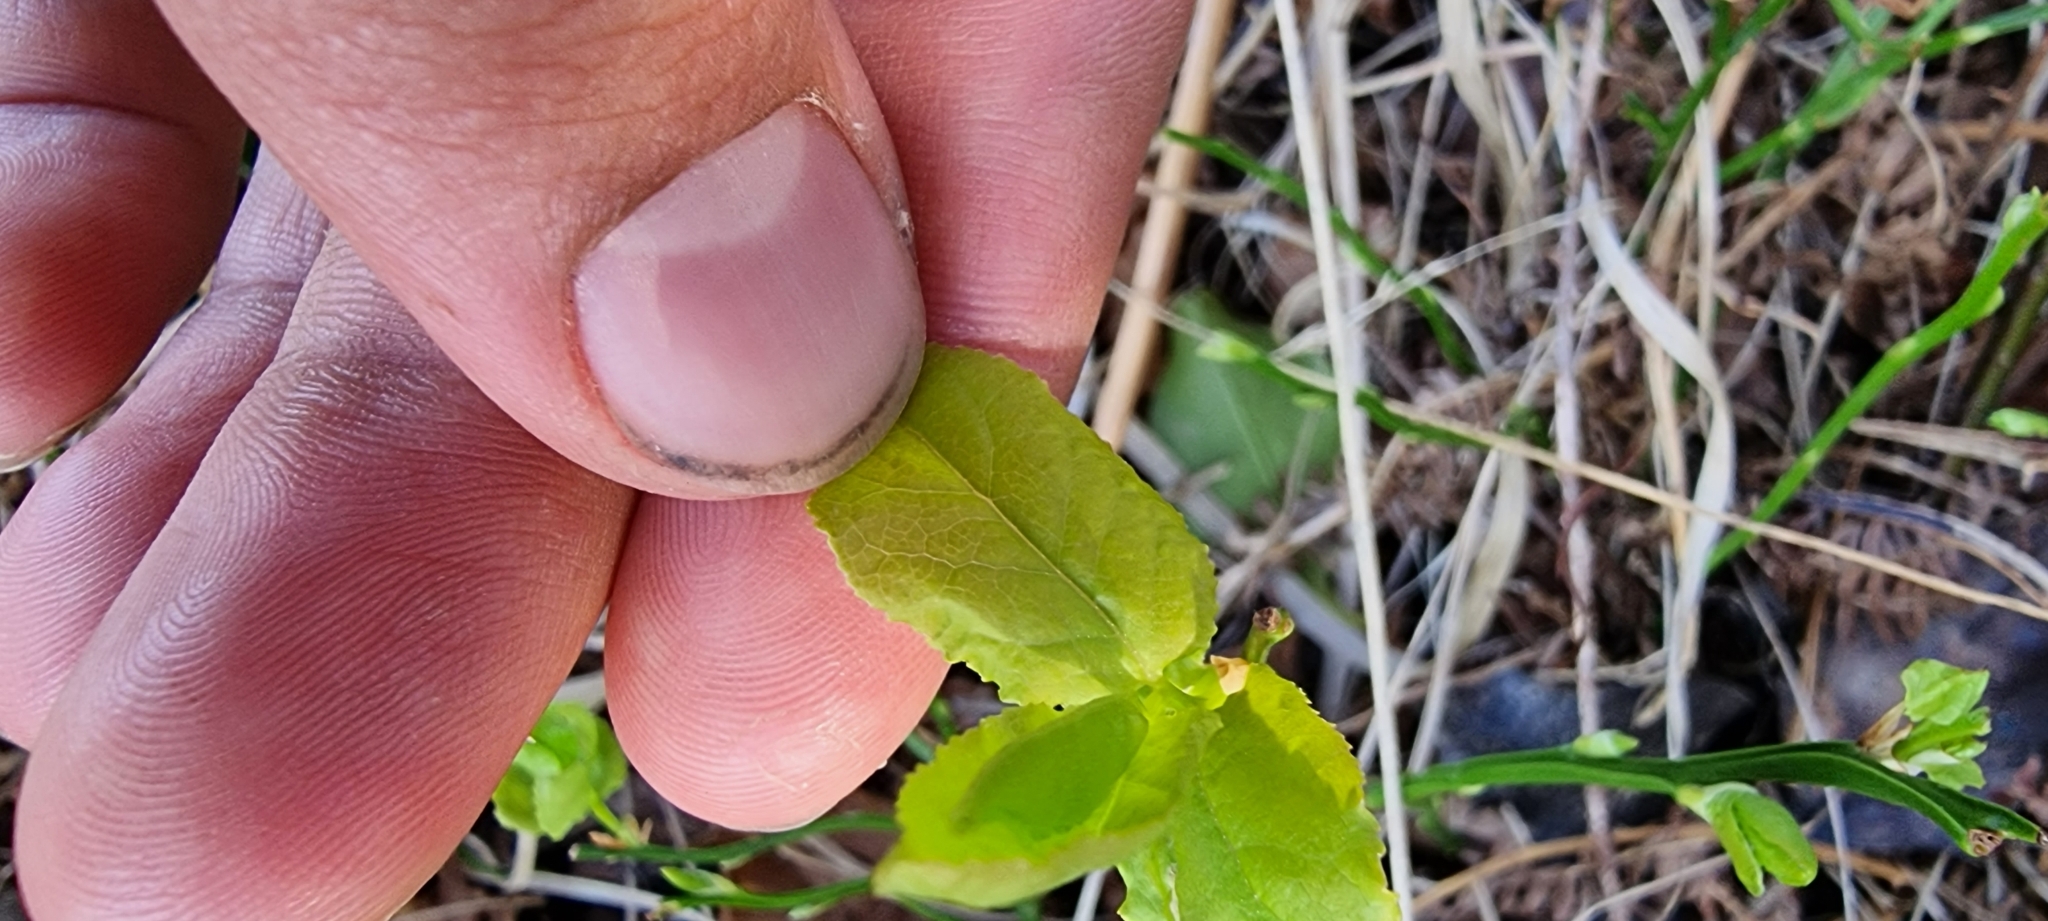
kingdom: Plantae
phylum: Tracheophyta
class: Magnoliopsida
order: Ericales
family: Ericaceae
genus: Vaccinium
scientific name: Vaccinium myrtillus
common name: Bilberry
